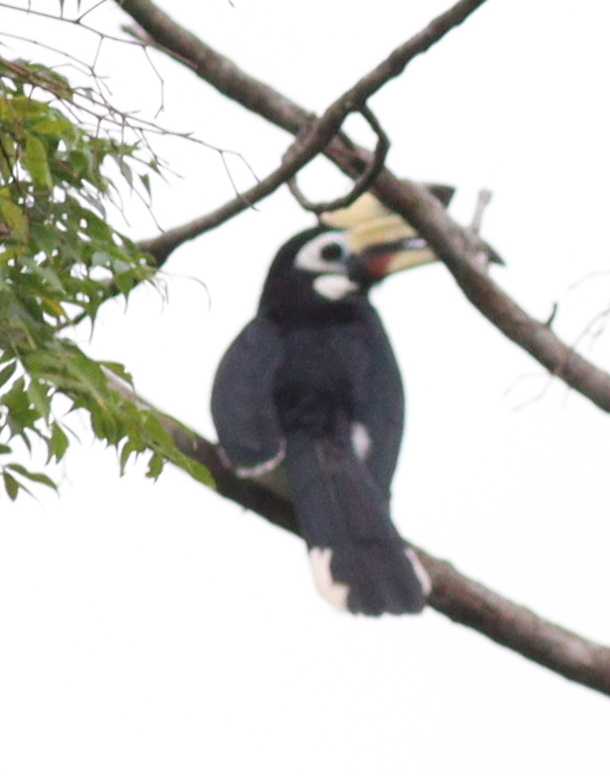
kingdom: Animalia
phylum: Chordata
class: Aves
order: Bucerotiformes
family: Bucerotidae
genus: Anthracoceros
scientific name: Anthracoceros albirostris
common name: Oriental pied-hornbill
